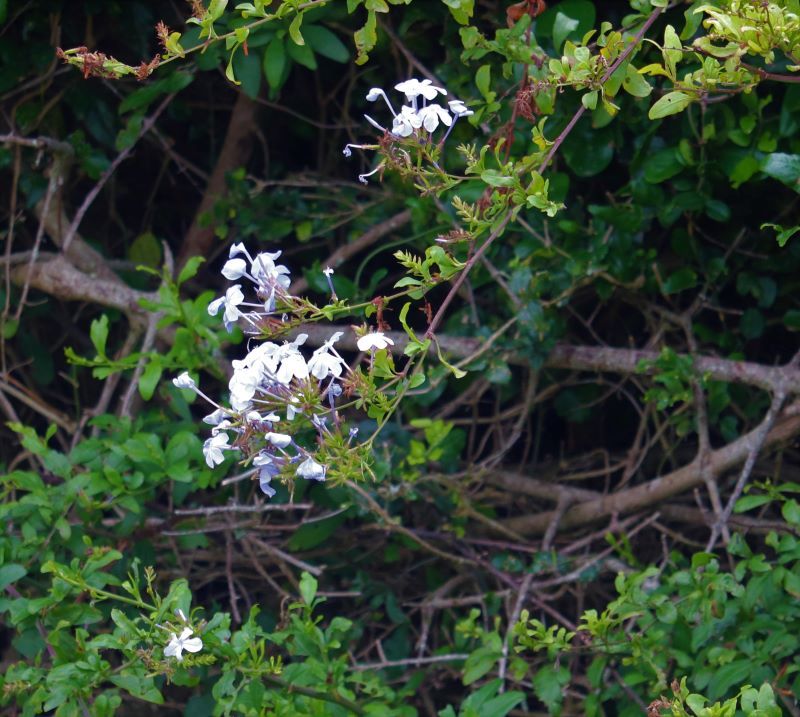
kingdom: Plantae
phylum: Tracheophyta
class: Magnoliopsida
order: Caryophyllales
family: Plumbaginaceae
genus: Plumbago
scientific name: Plumbago auriculata
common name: Cape leadwort
